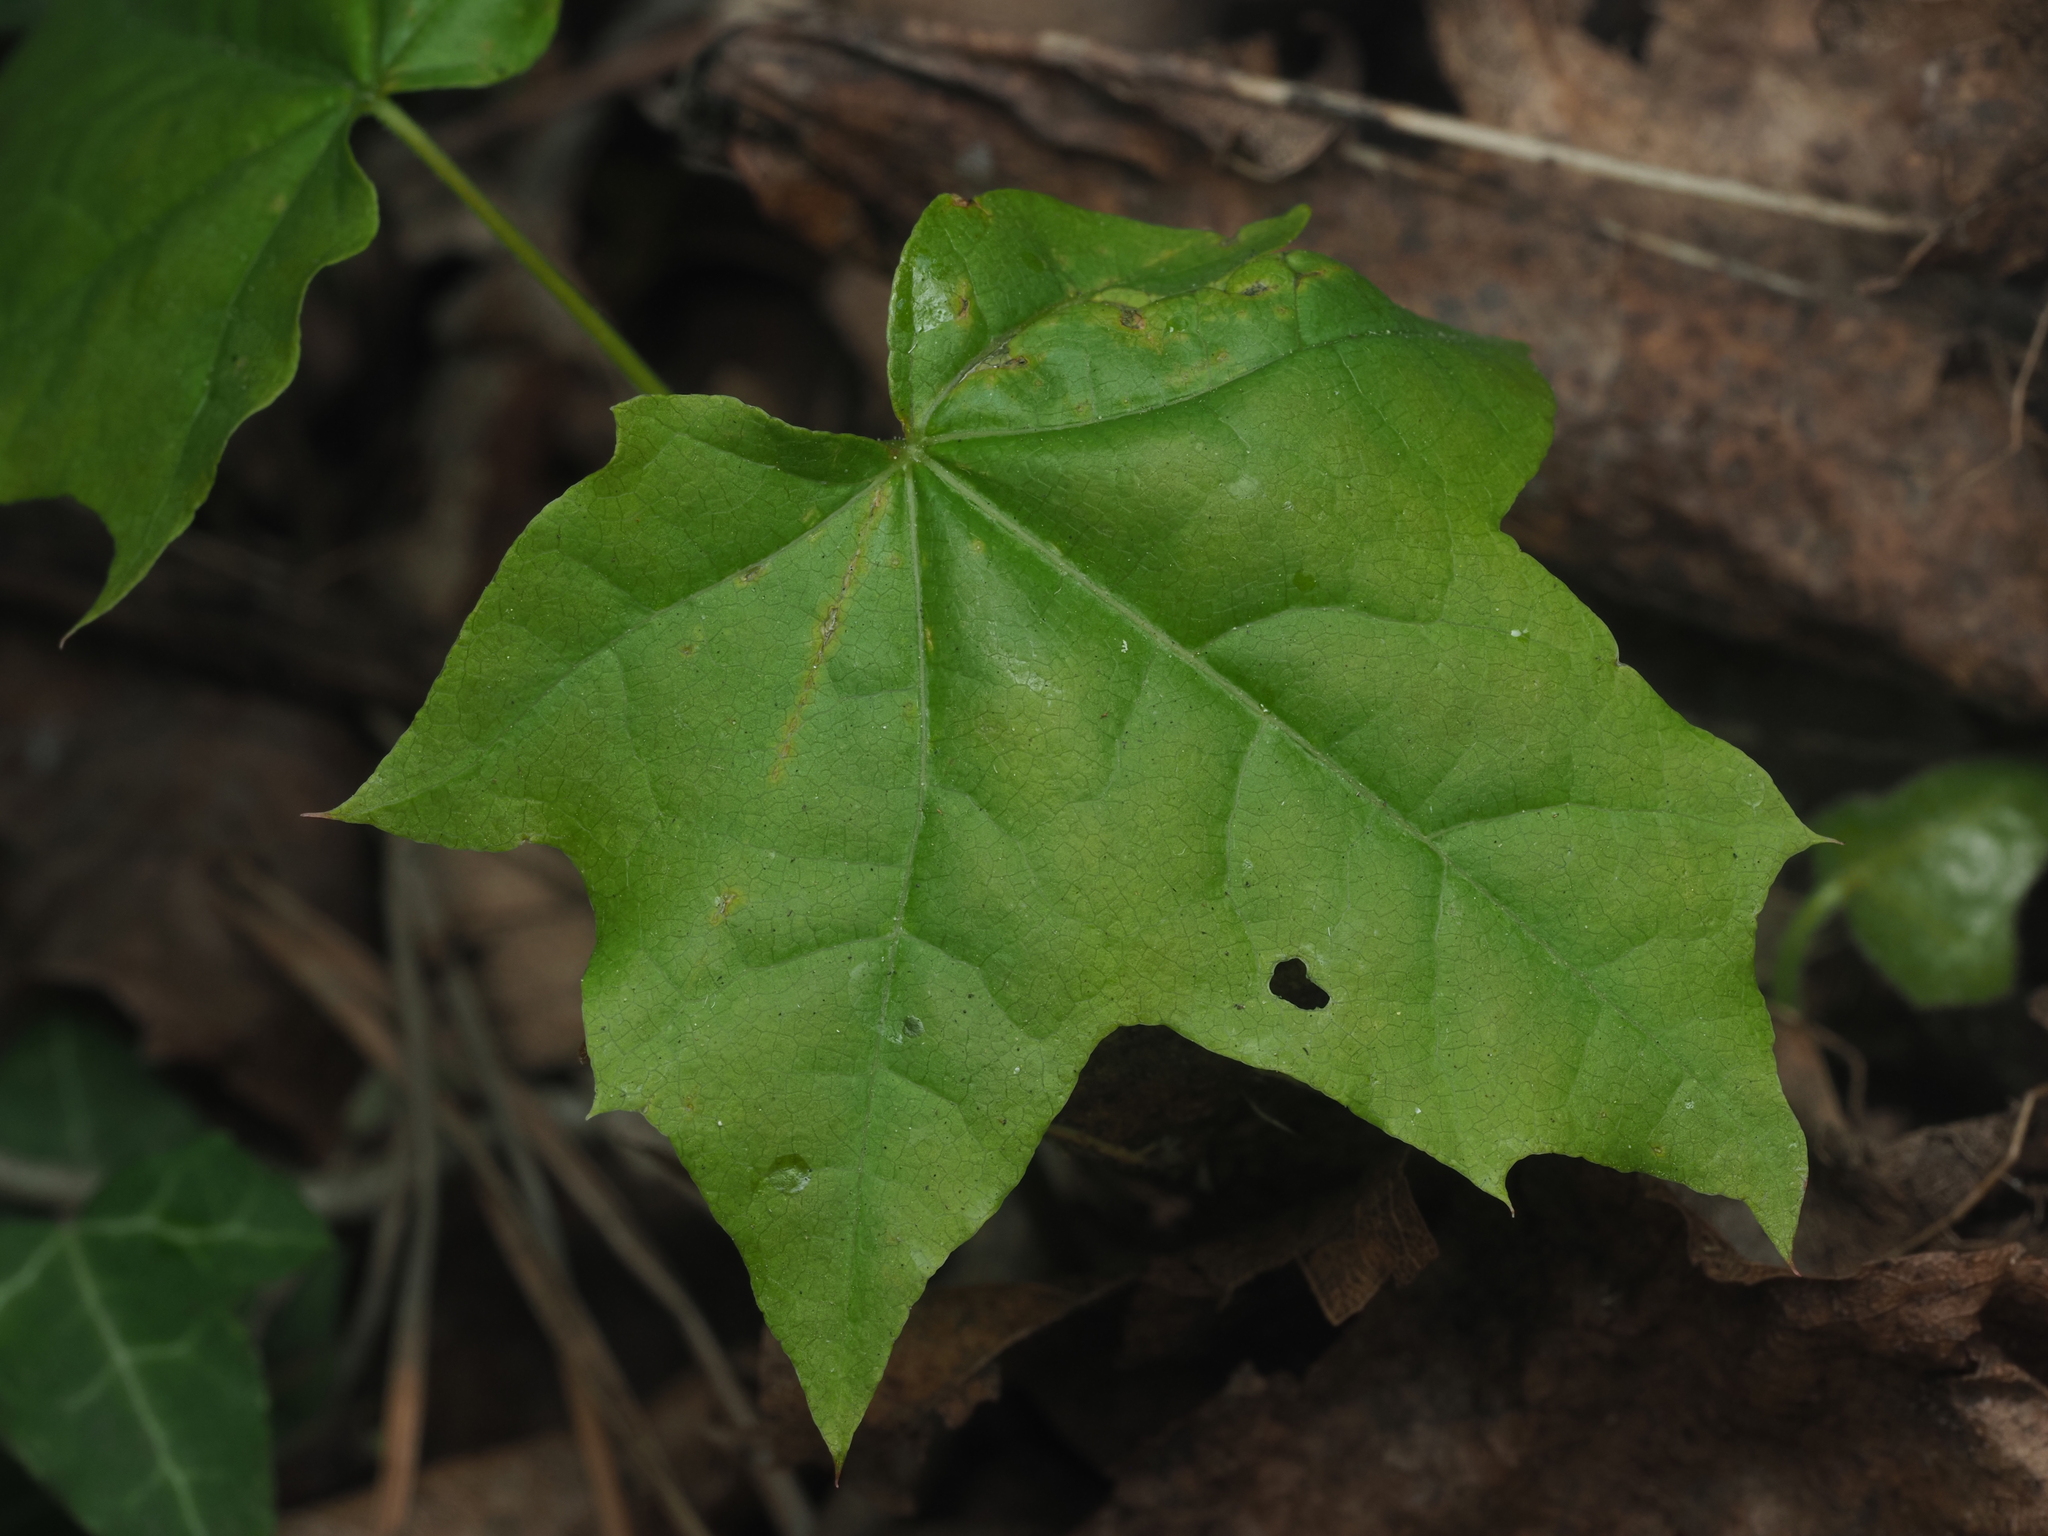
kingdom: Plantae
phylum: Tracheophyta
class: Magnoliopsida
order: Sapindales
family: Sapindaceae
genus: Acer
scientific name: Acer platanoides
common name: Norway maple
